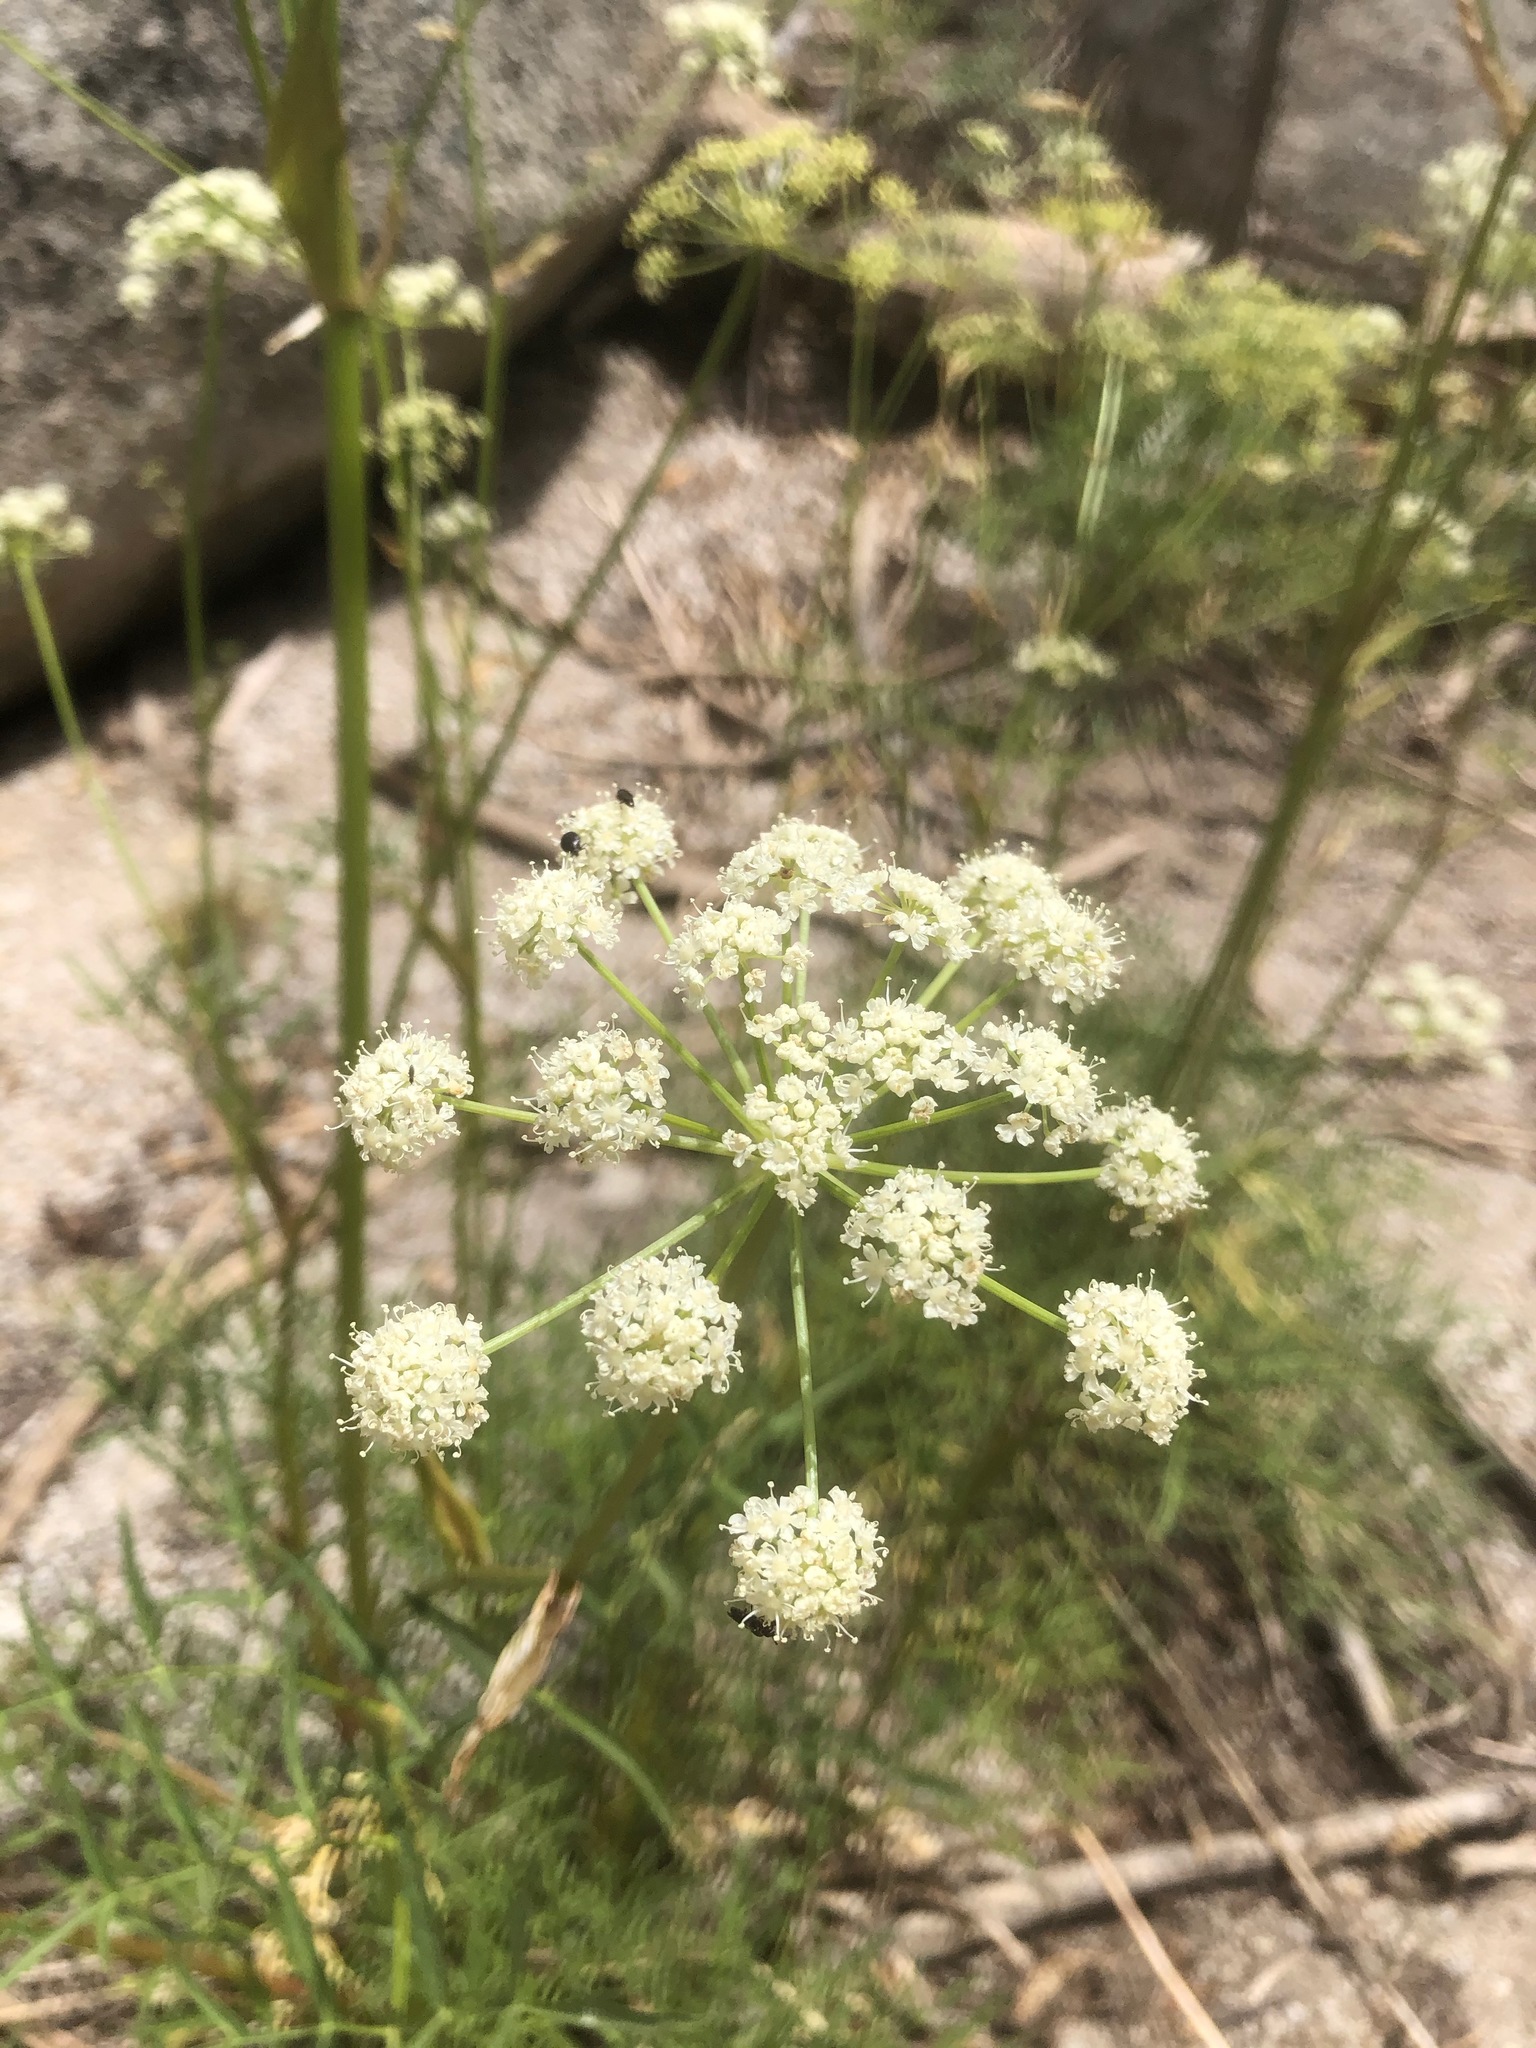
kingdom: Plantae
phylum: Tracheophyta
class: Magnoliopsida
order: Apiales
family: Apiaceae
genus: Angelica
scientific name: Angelica lineariloba
